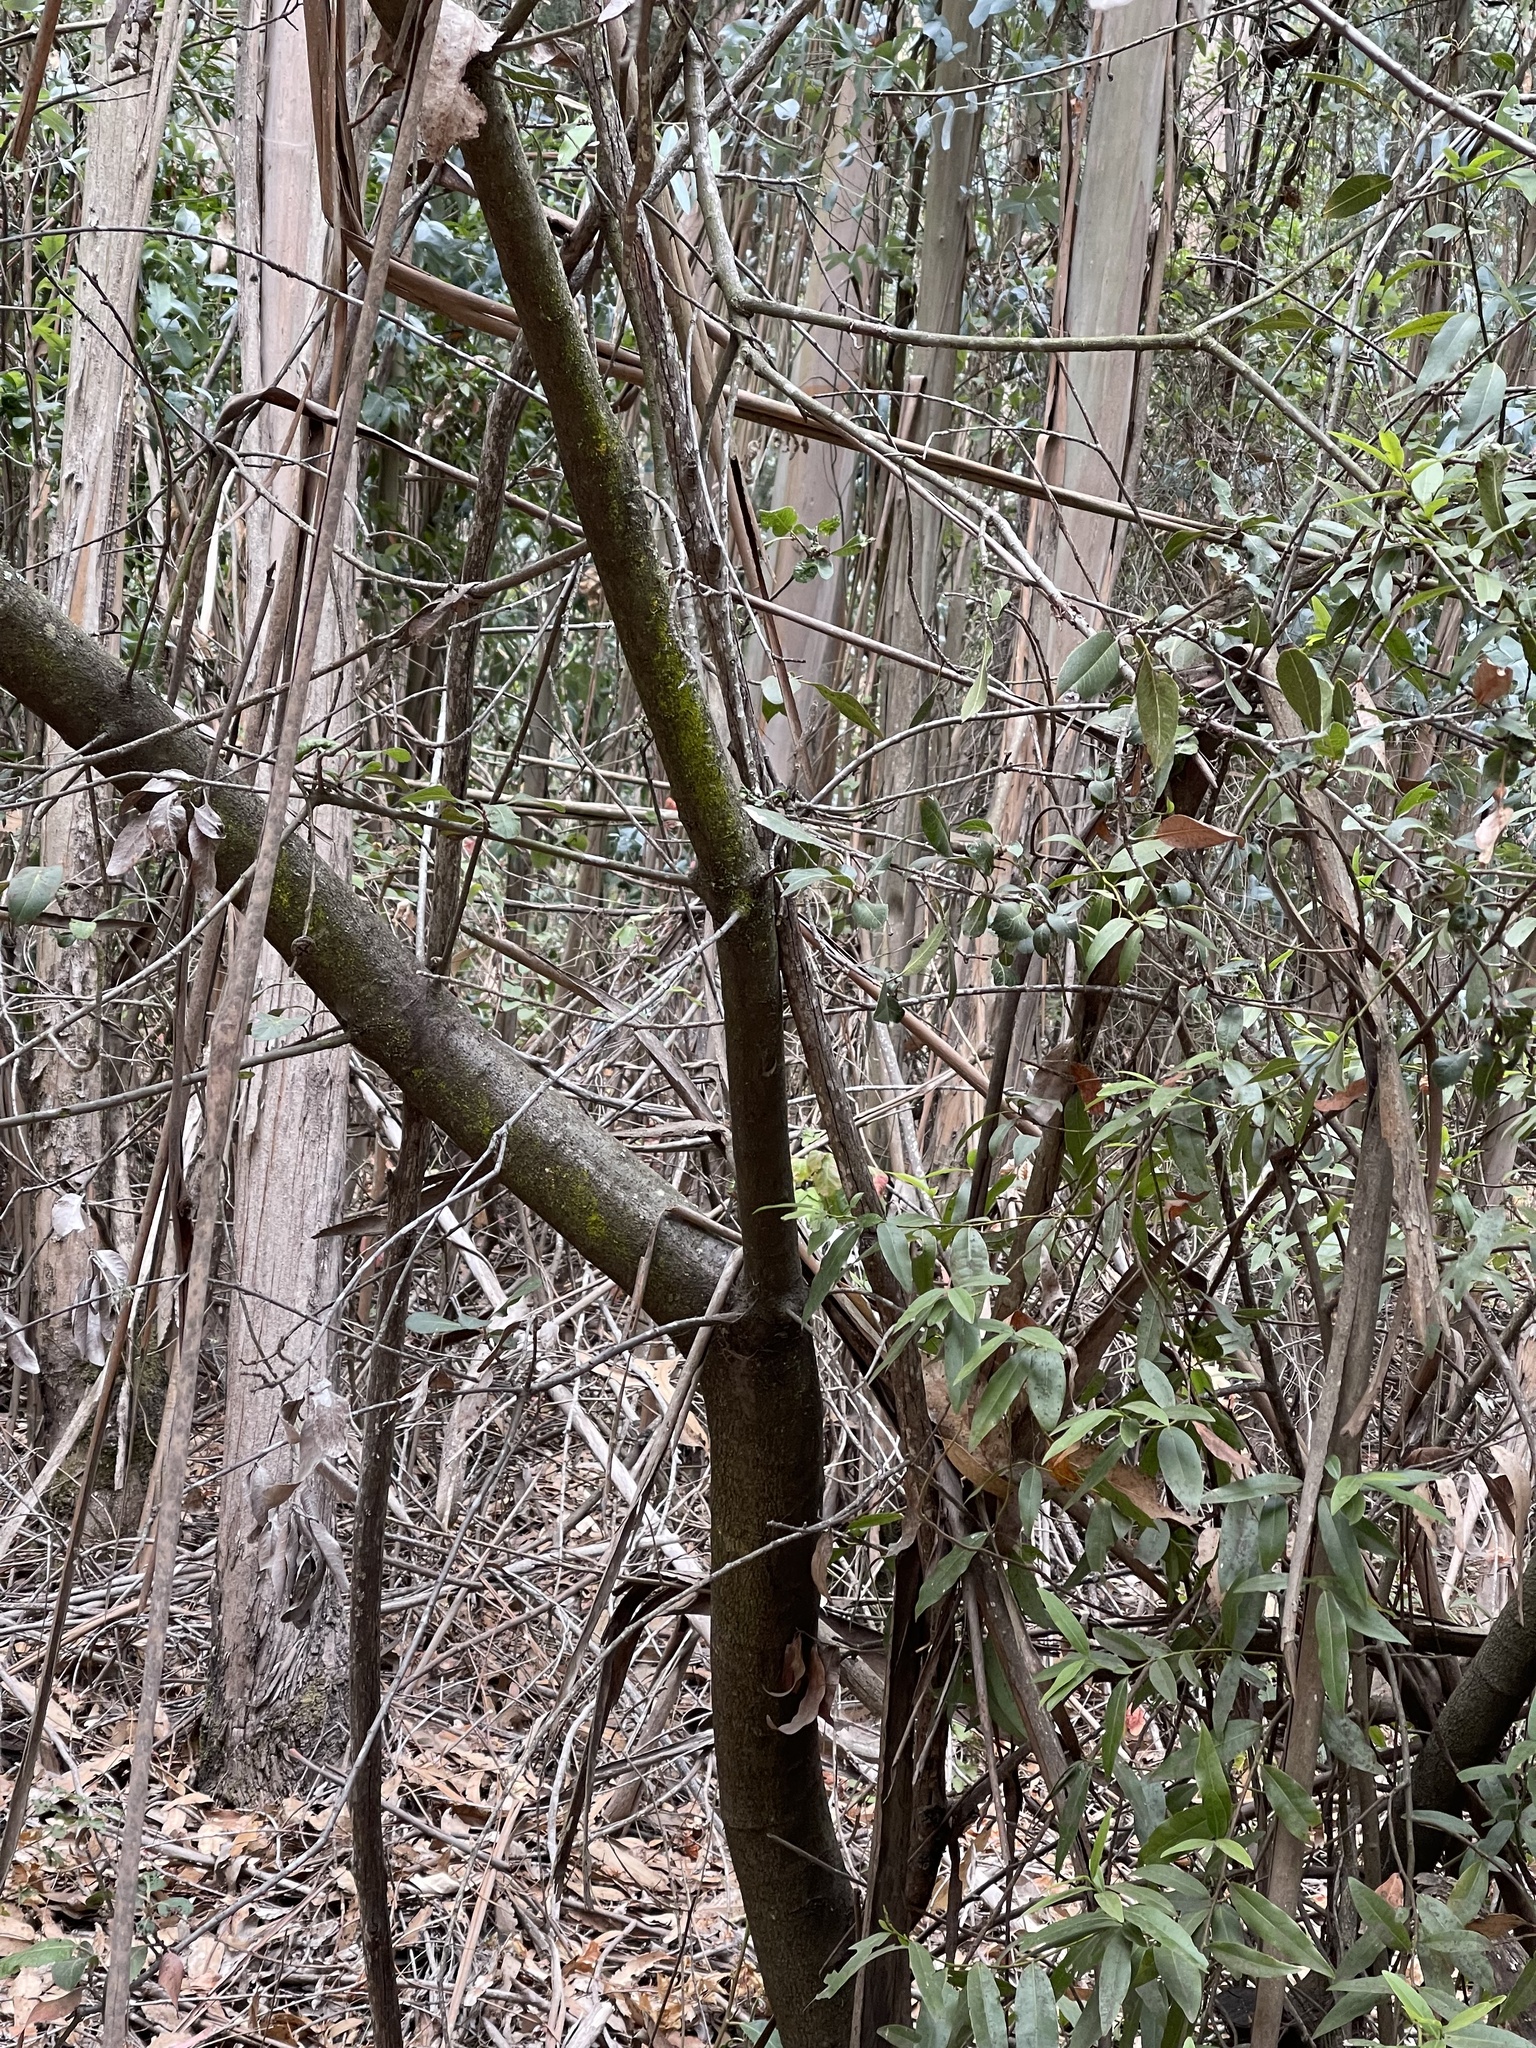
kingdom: Plantae
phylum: Tracheophyta
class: Magnoliopsida
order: Rosales
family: Rosaceae
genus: Heteromeles
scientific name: Heteromeles arbutifolia
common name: California-holly
